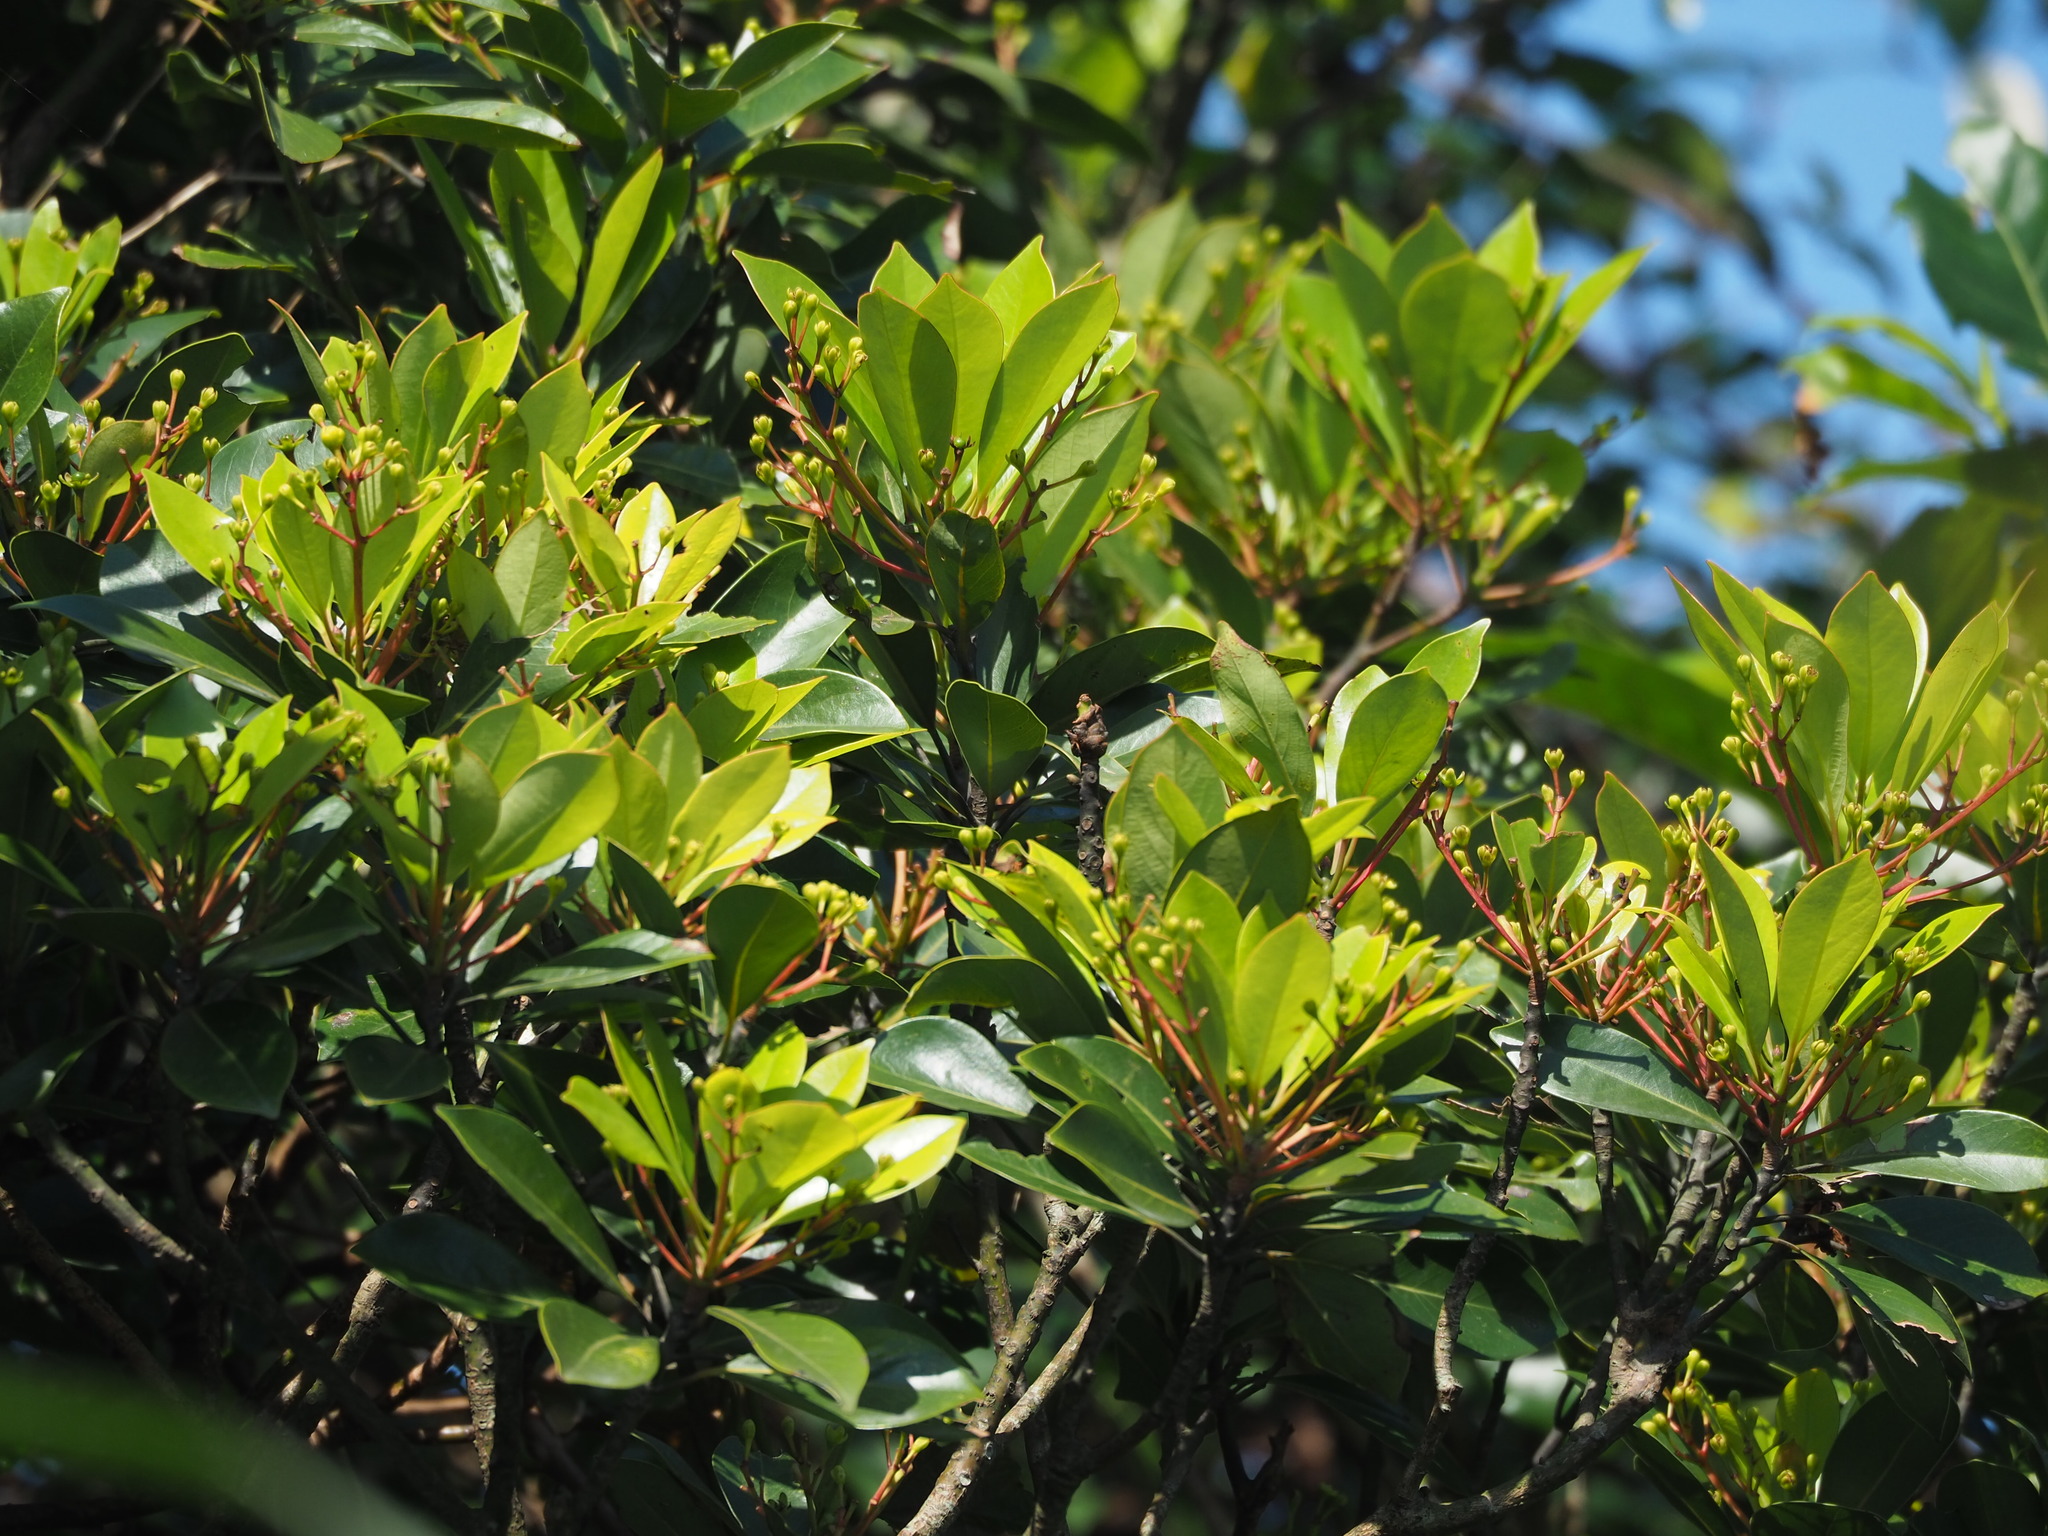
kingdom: Plantae
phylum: Tracheophyta
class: Magnoliopsida
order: Laurales
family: Lauraceae
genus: Machilus
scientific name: Machilus thunbergii
